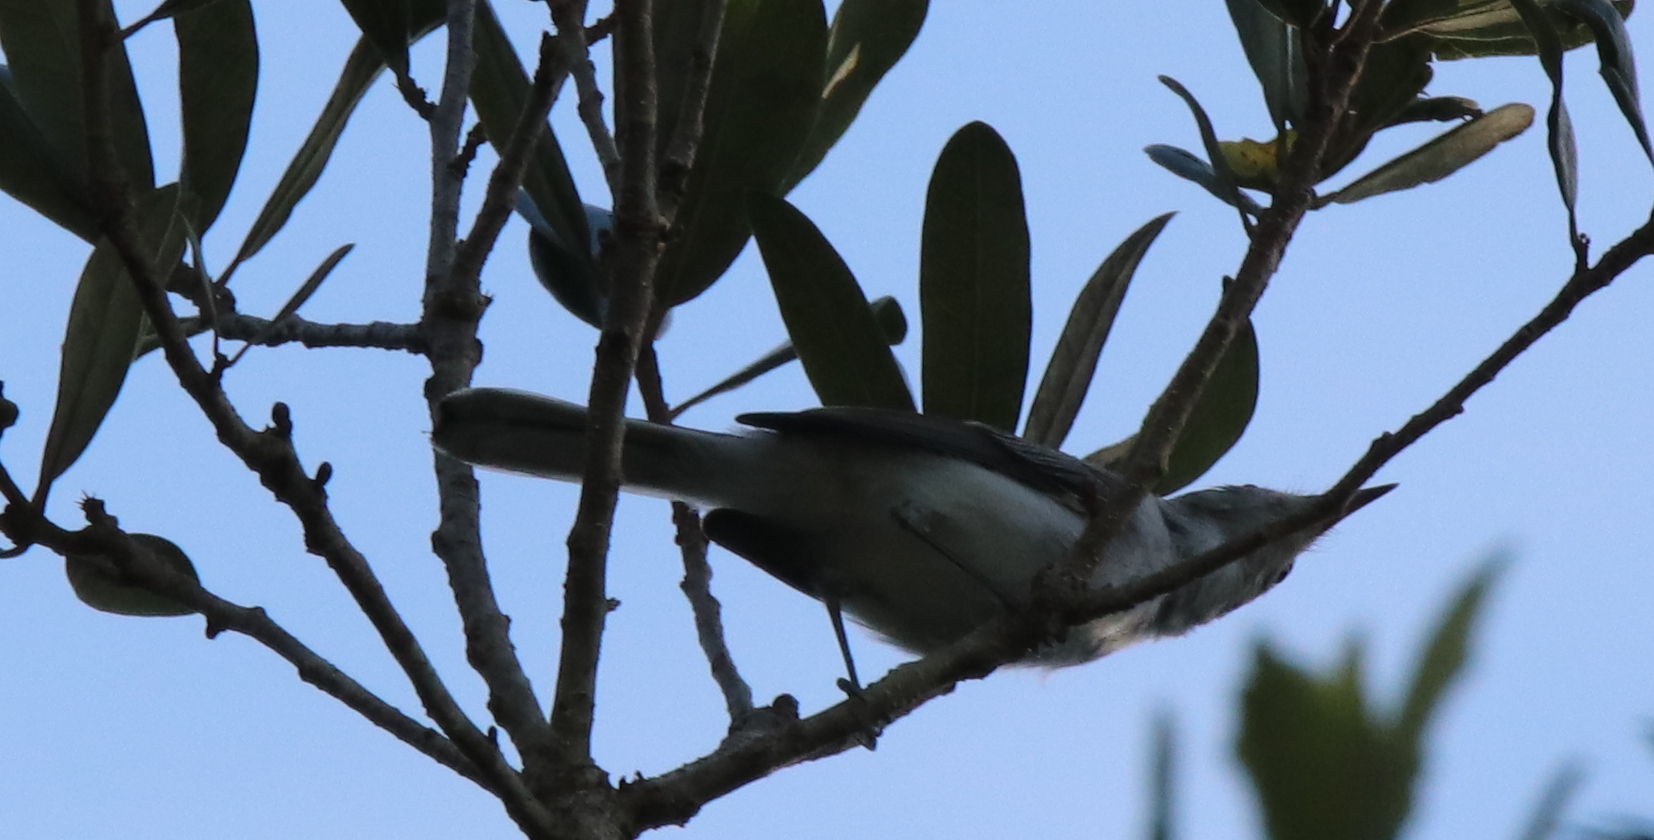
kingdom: Animalia
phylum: Chordata
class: Aves
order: Passeriformes
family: Polioptilidae
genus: Polioptila
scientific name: Polioptila caerulea
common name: Blue-gray gnatcatcher
